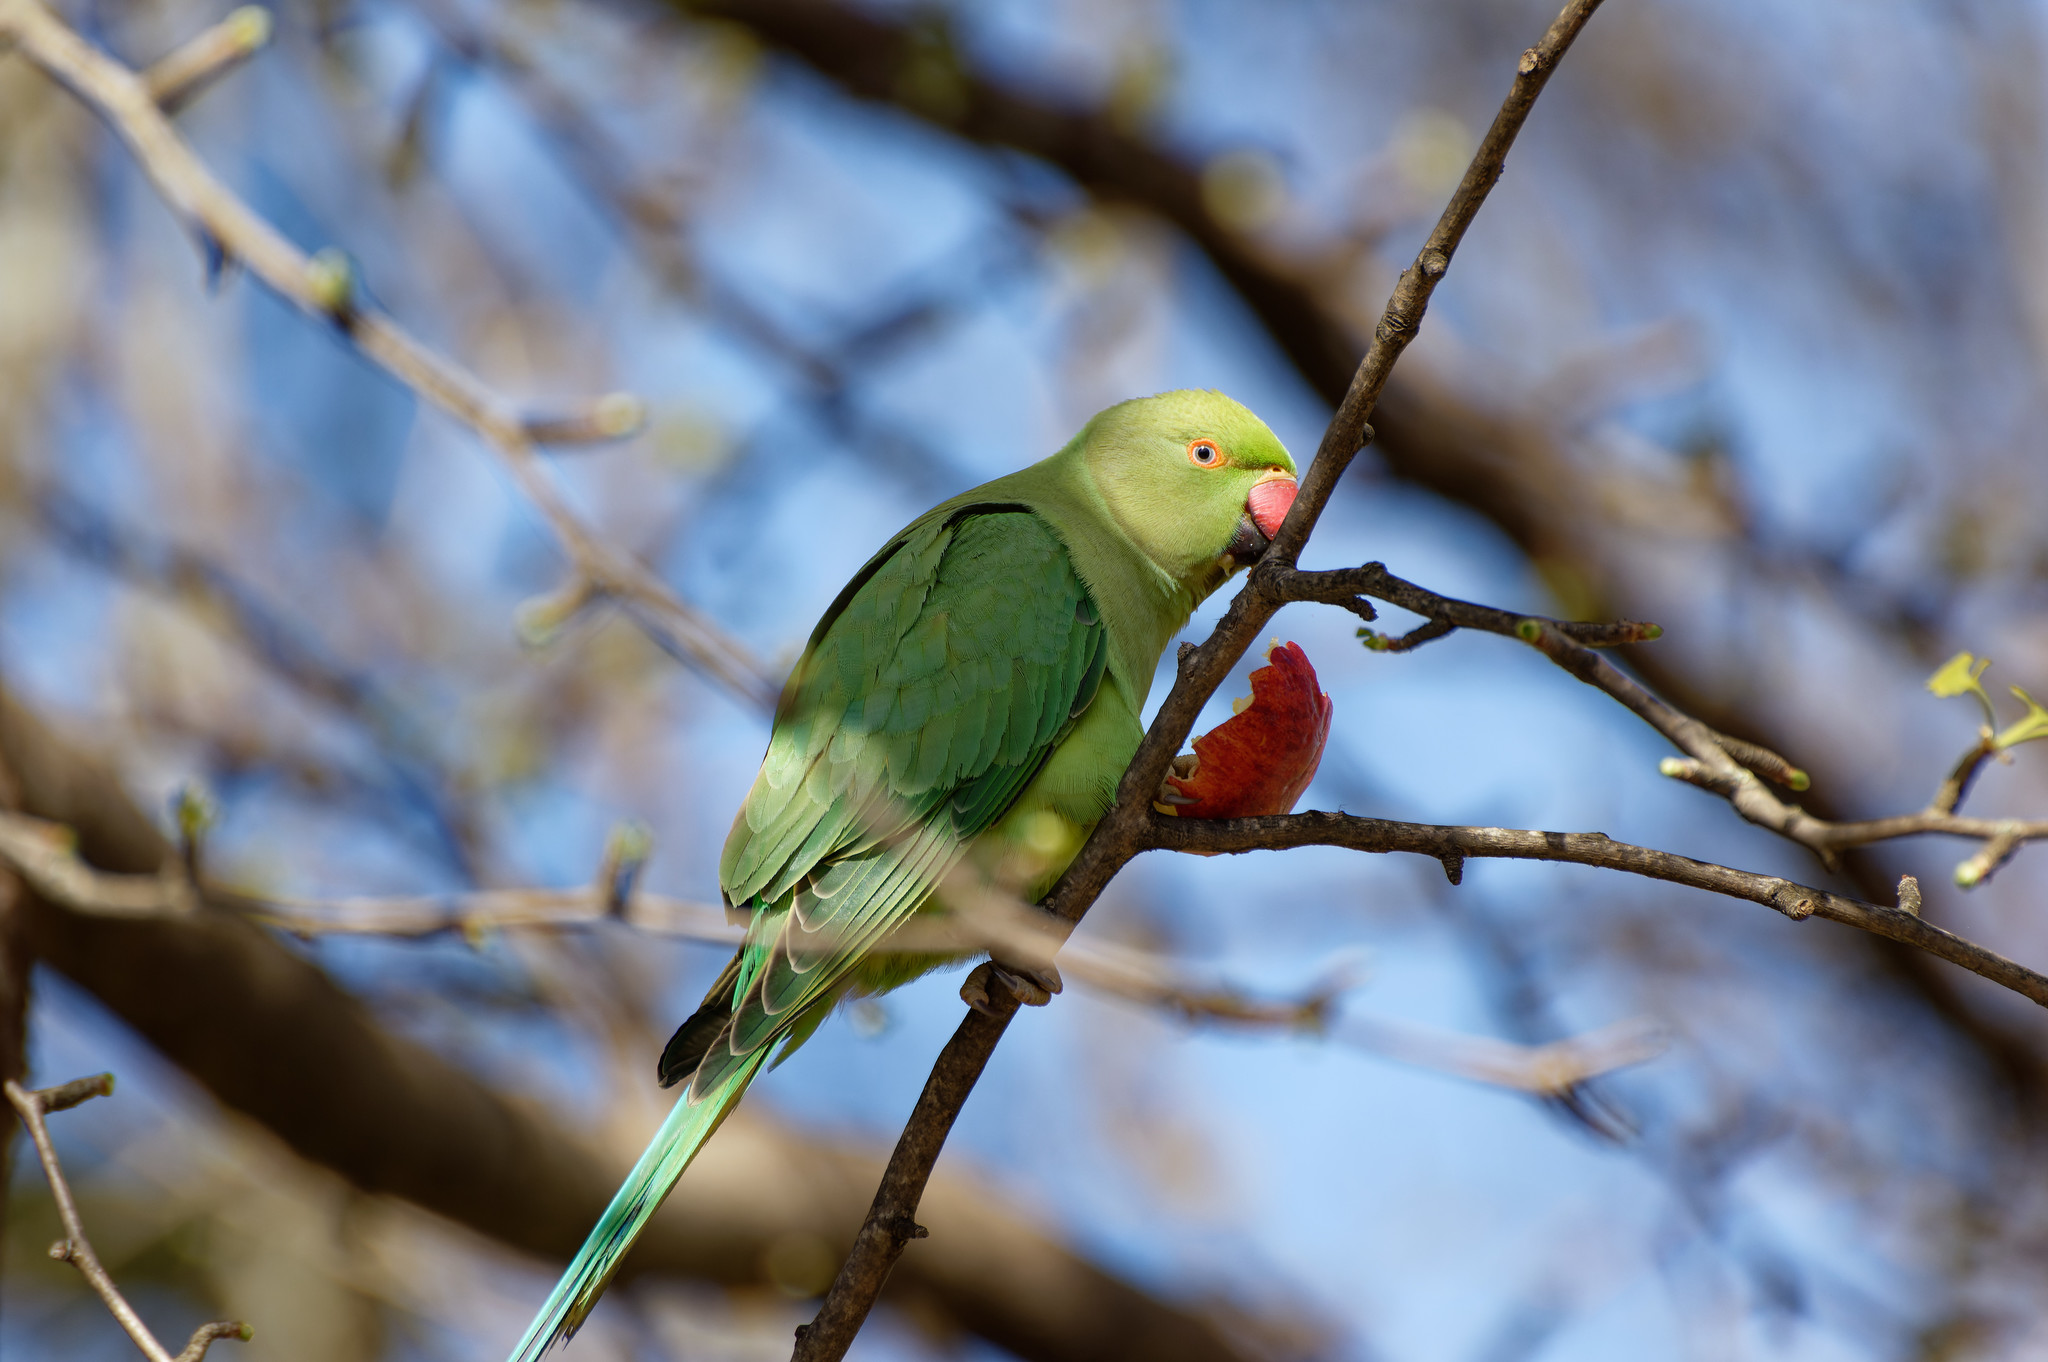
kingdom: Animalia
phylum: Chordata
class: Aves
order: Psittaciformes
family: Psittacidae
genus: Psittacula
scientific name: Psittacula krameri
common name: Rose-ringed parakeet
